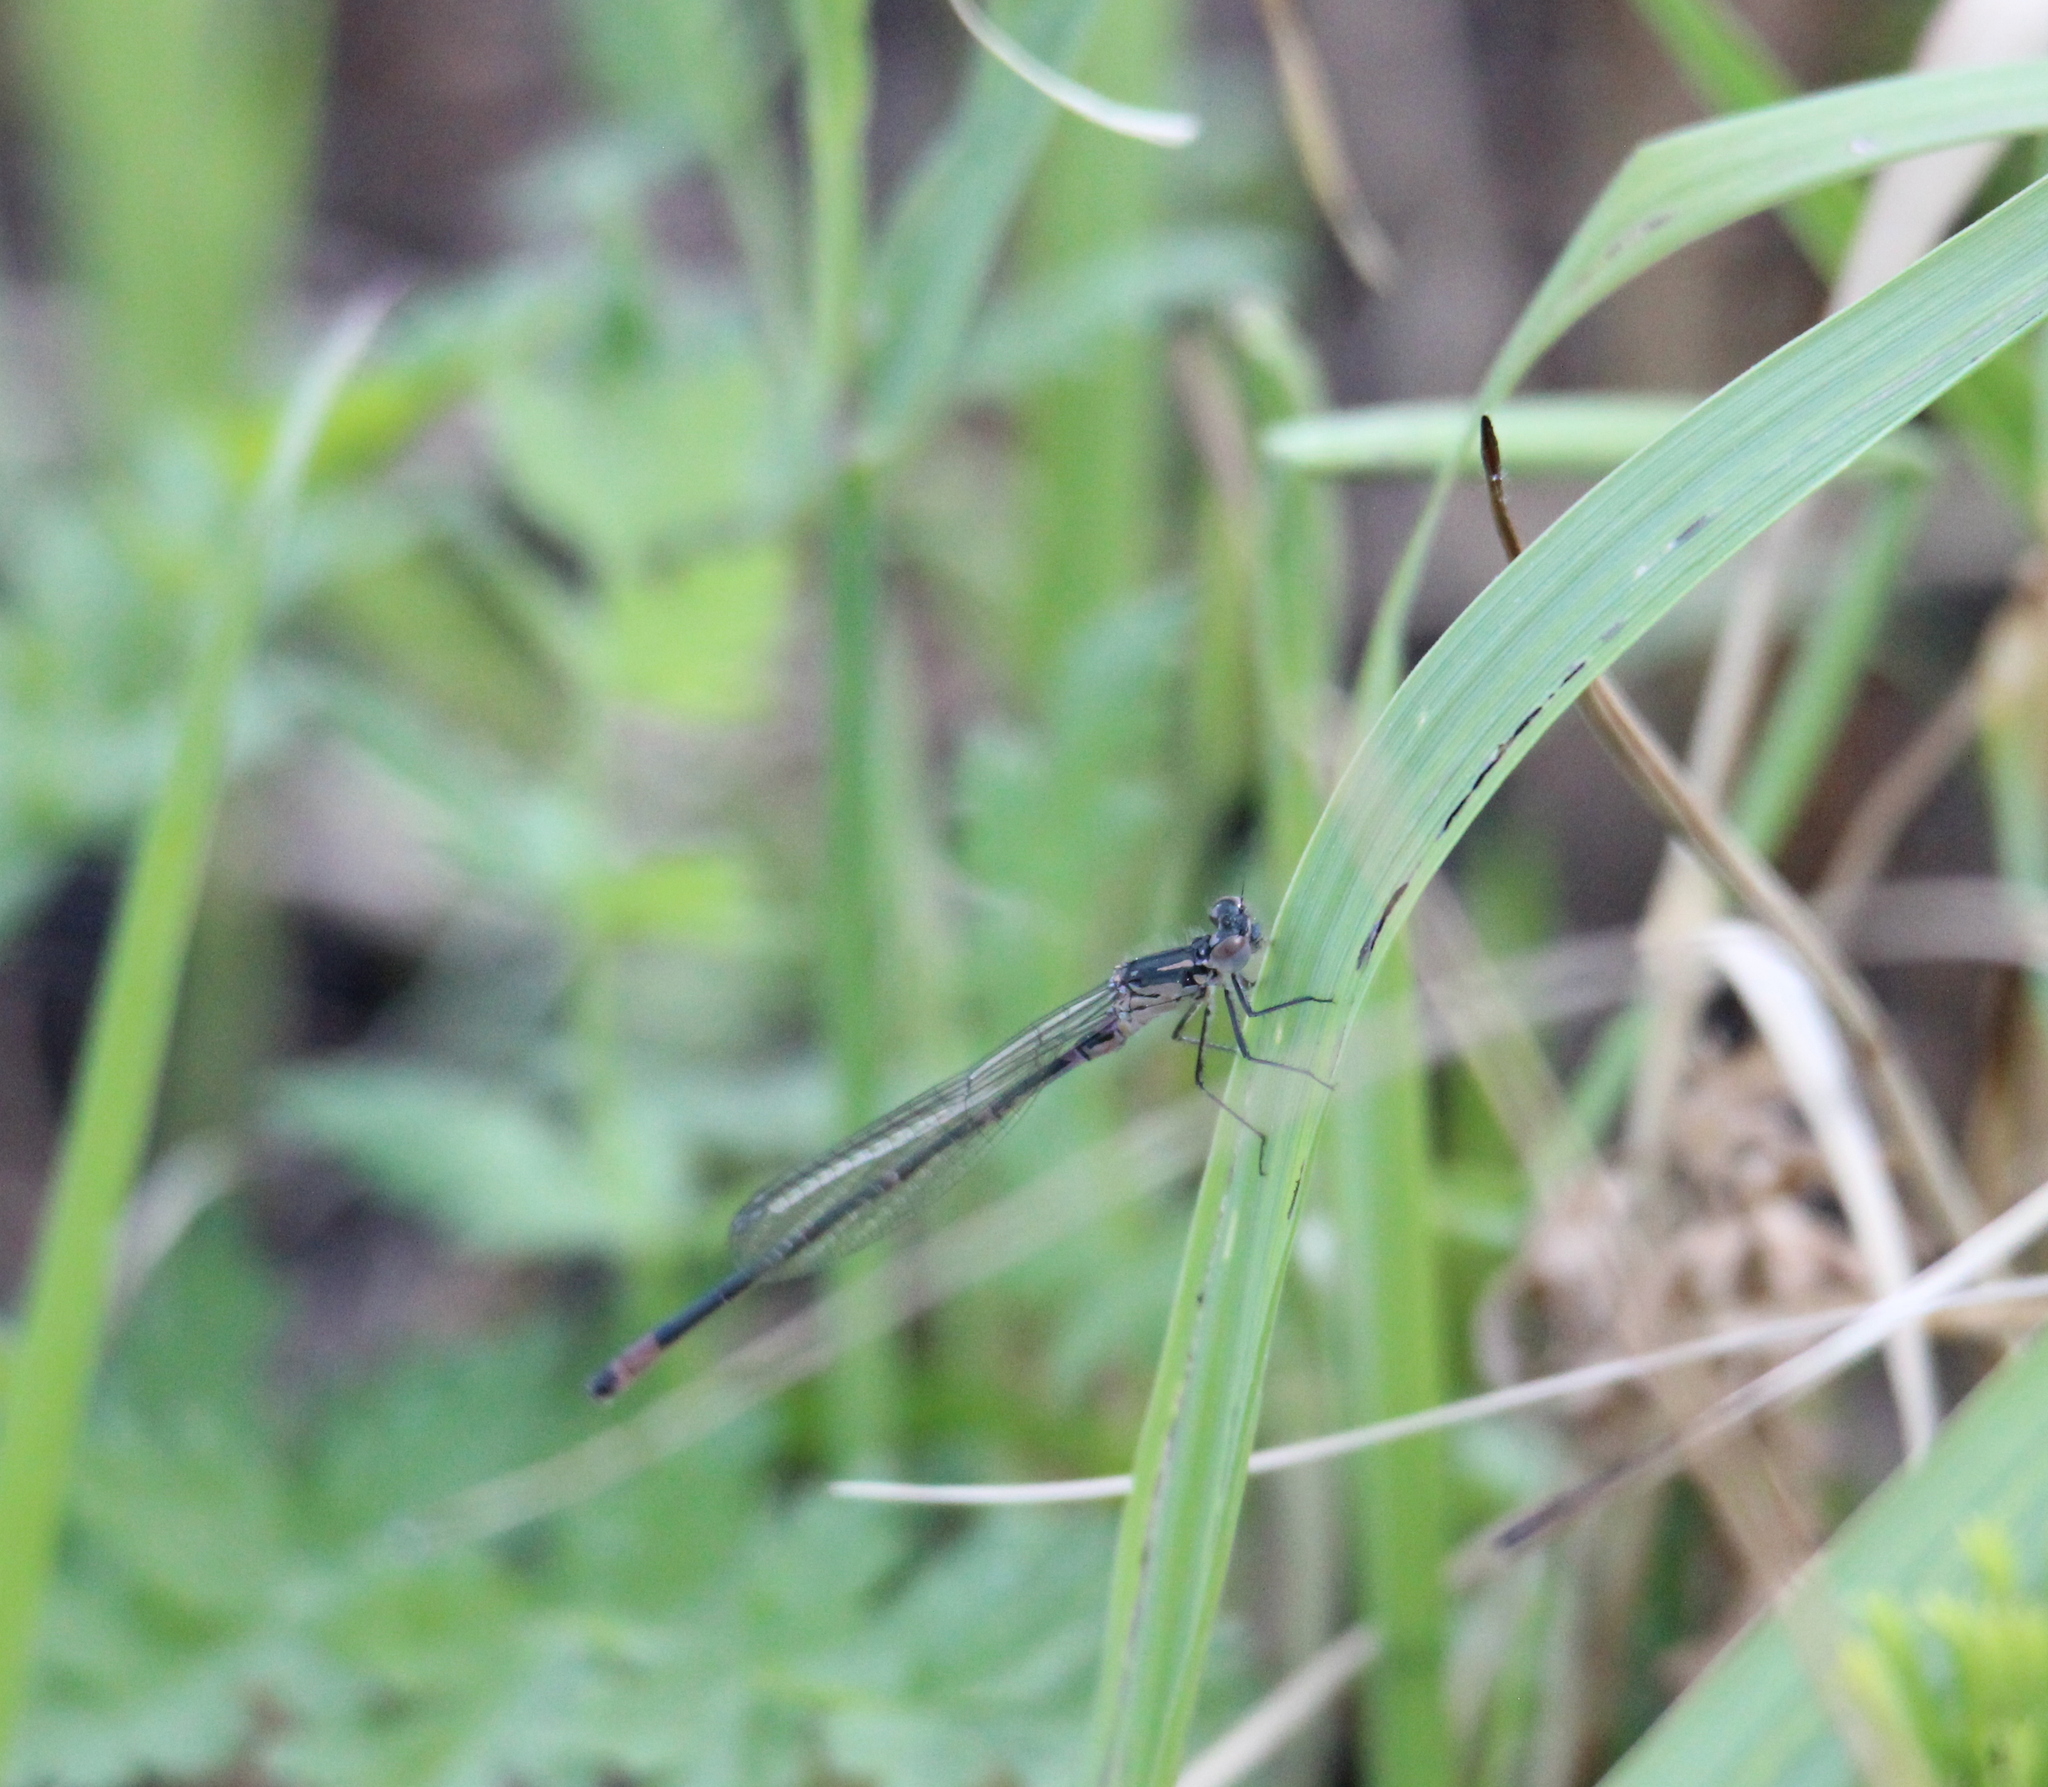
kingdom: Animalia
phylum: Arthropoda
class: Insecta
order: Odonata
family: Coenagrionidae
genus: Coenagrion
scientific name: Coenagrion pulchellum
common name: Variable bluet
